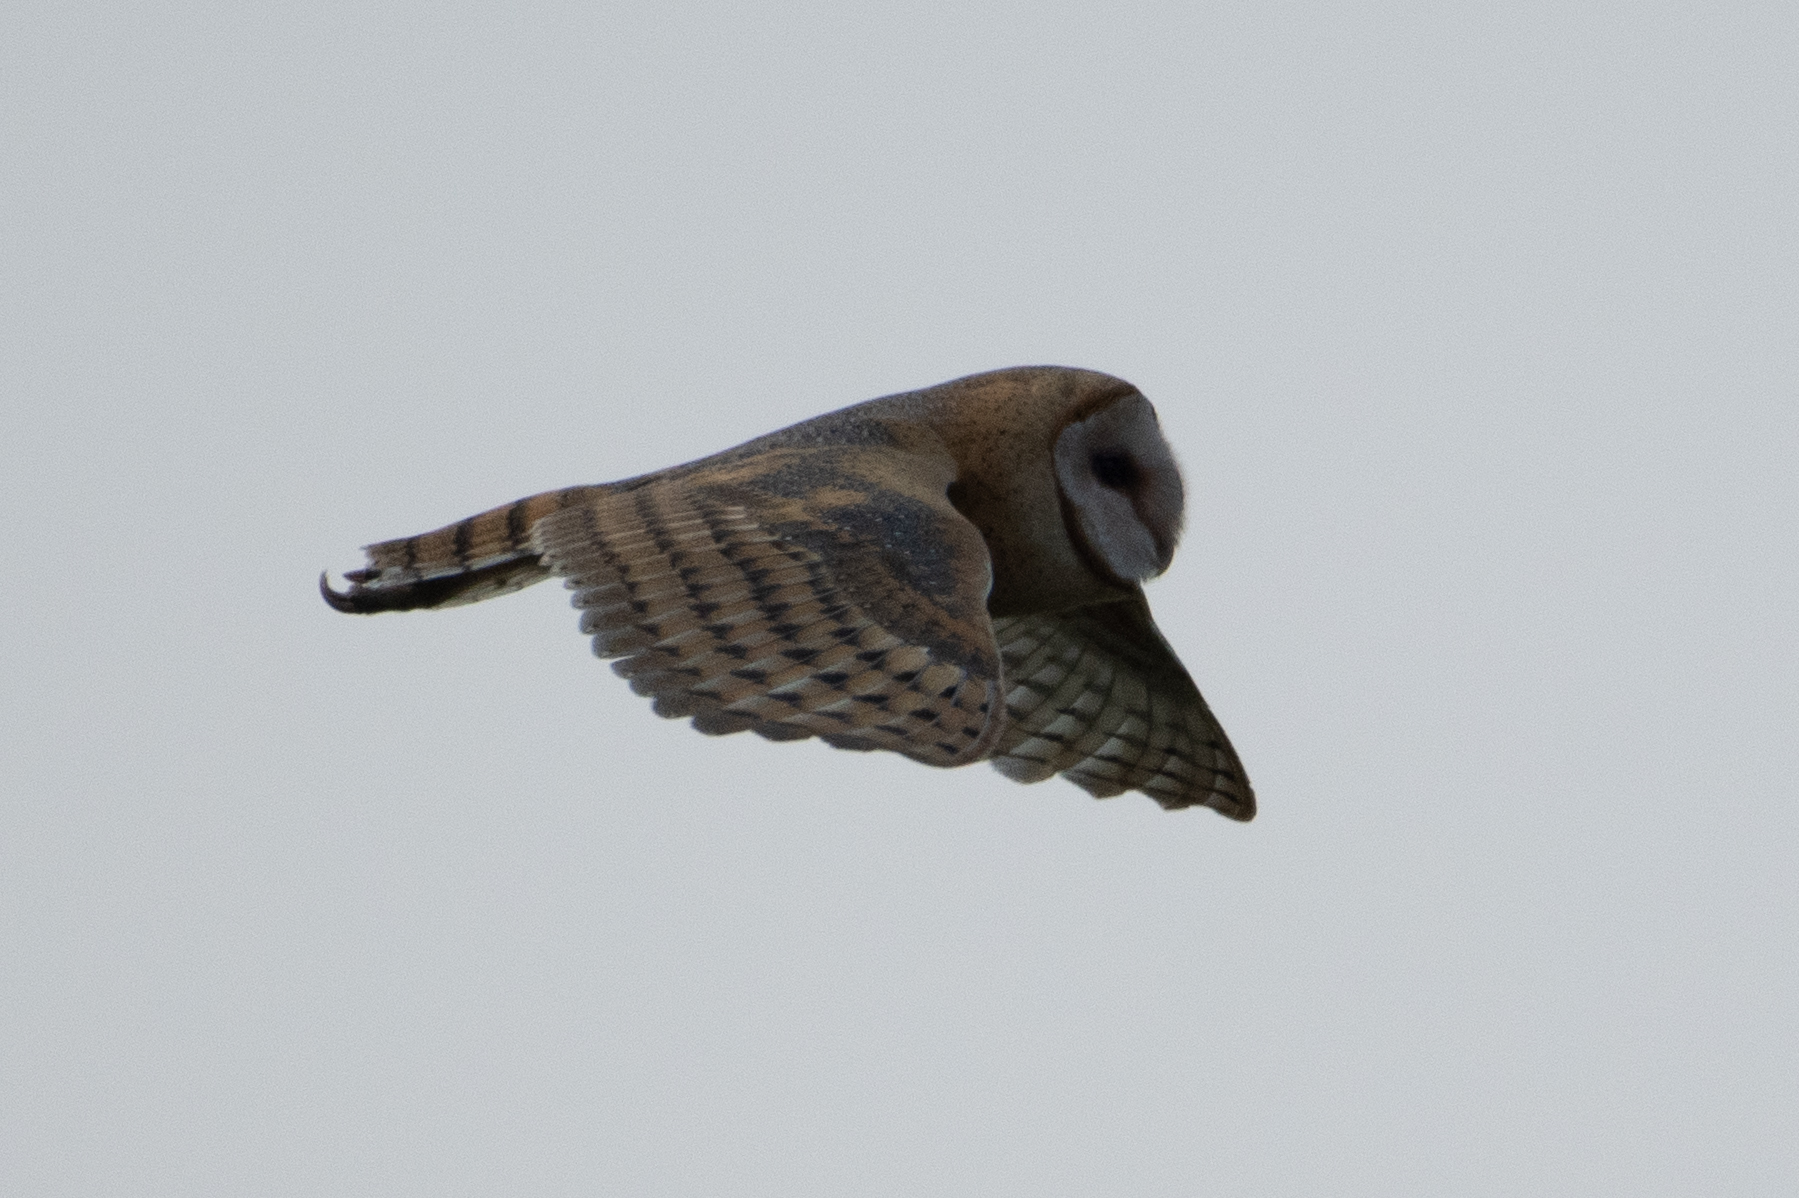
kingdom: Animalia
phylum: Chordata
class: Aves
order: Strigiformes
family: Tytonidae
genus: Tyto
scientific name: Tyto alba
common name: Barn owl
